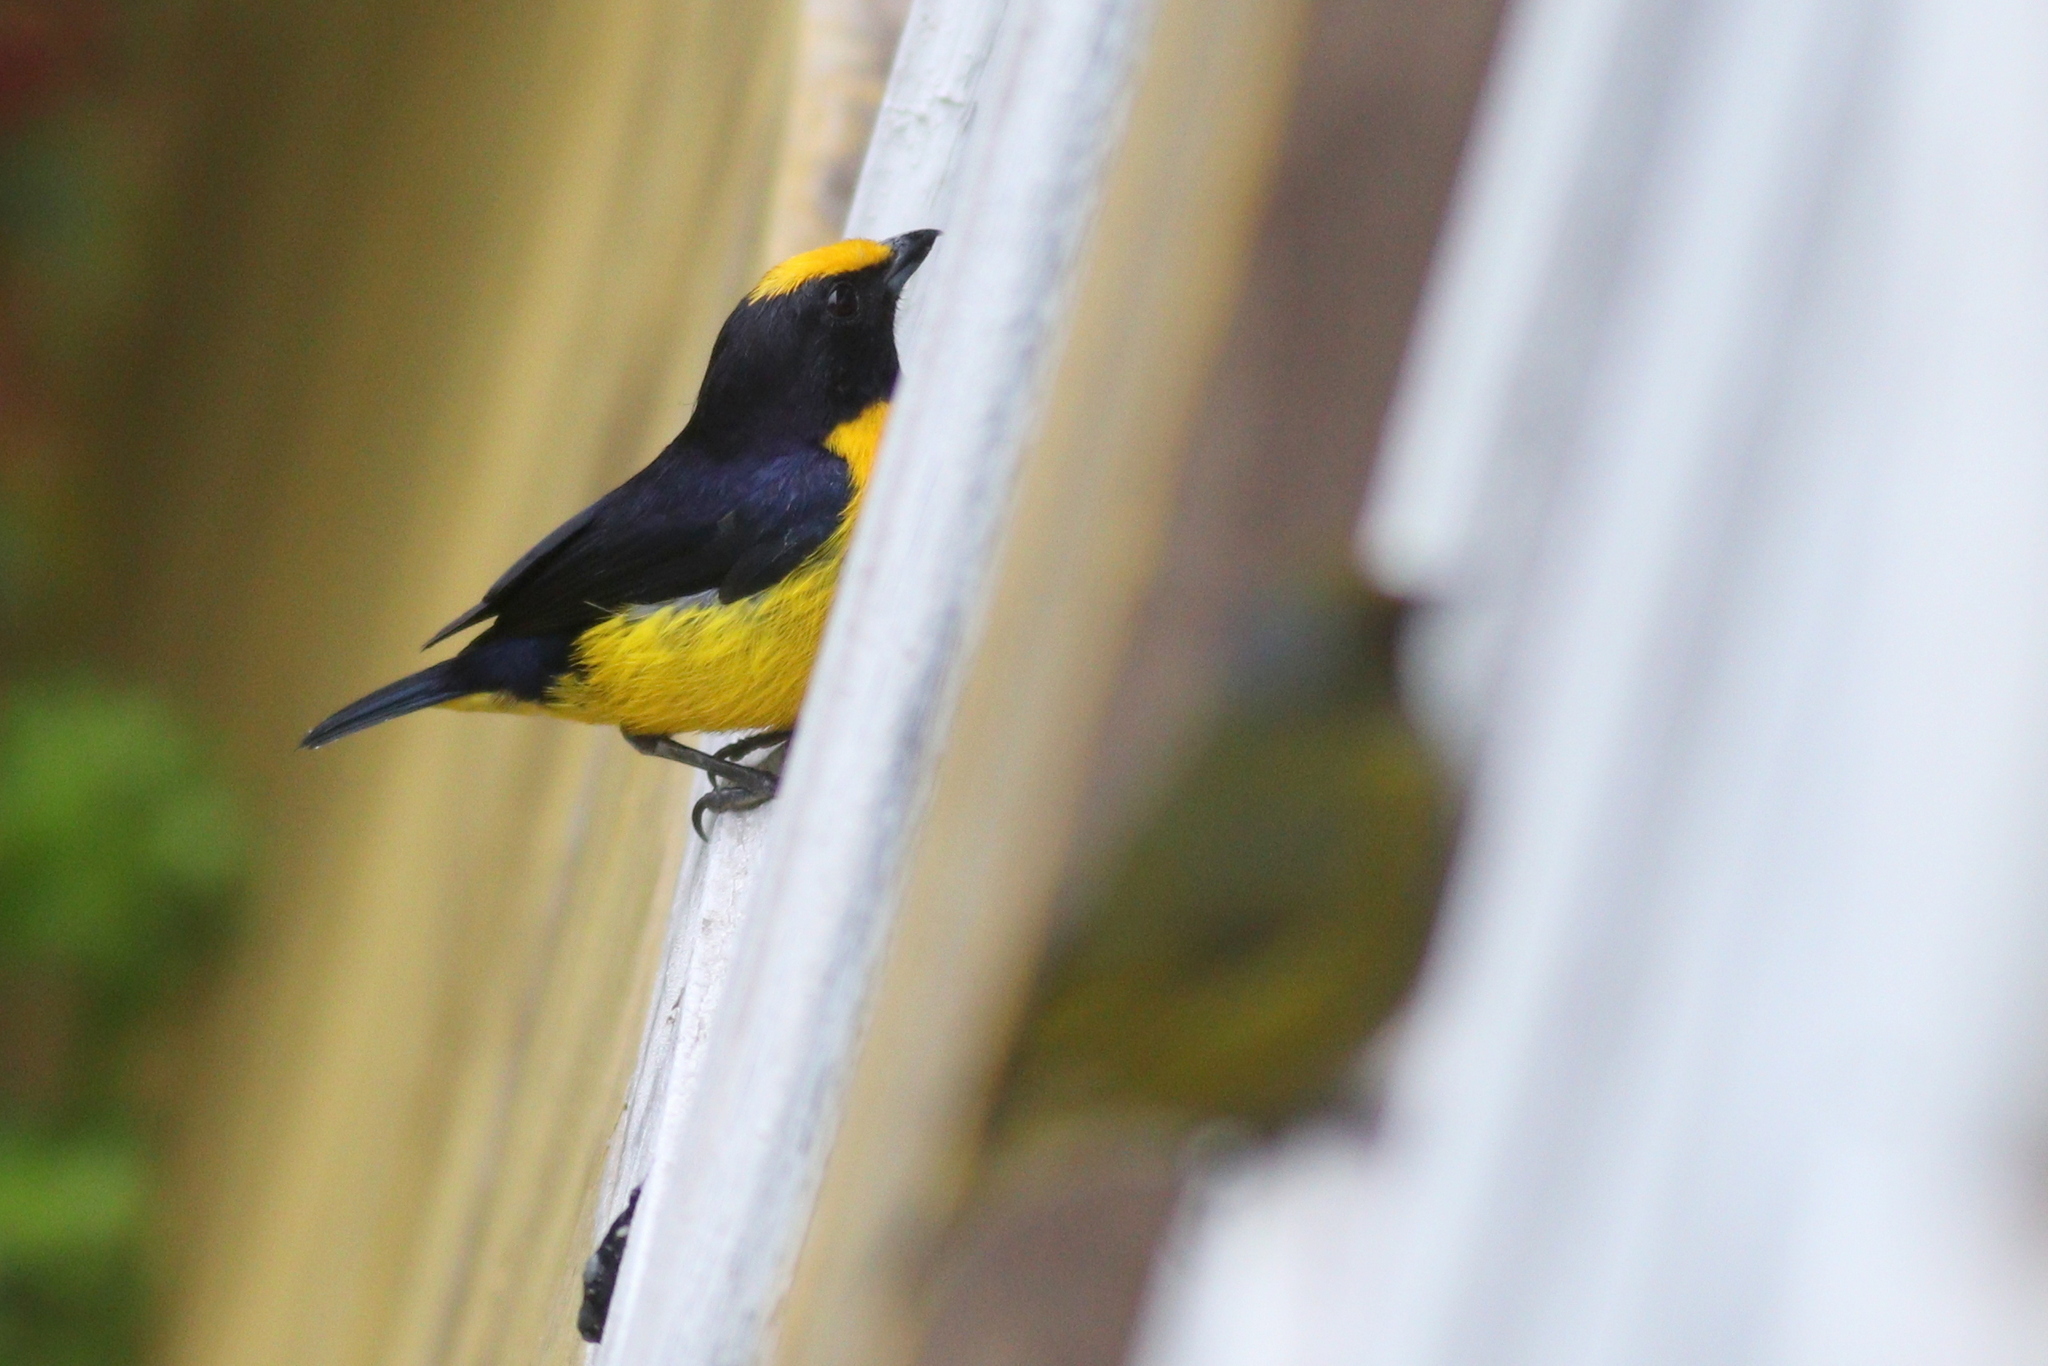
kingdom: Animalia
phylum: Chordata
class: Aves
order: Passeriformes
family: Fringillidae
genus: Euphonia
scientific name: Euphonia xanthogaster
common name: Orange-bellied euphonia
